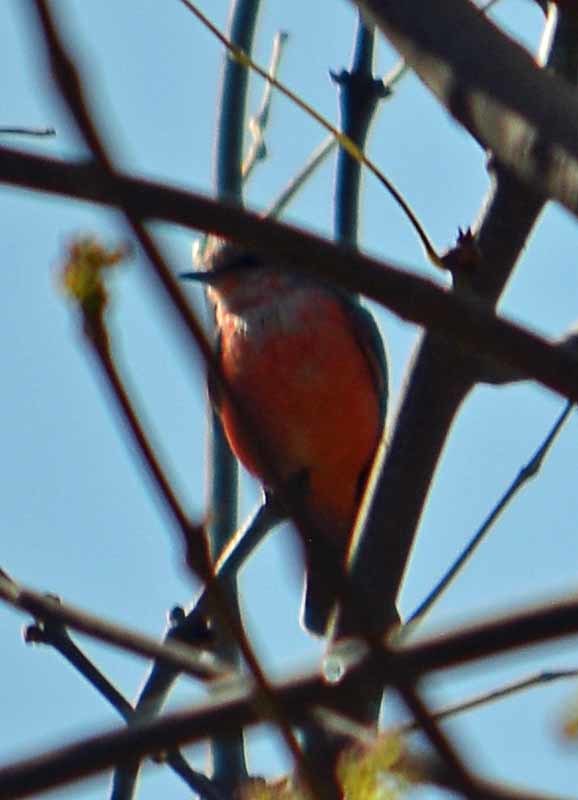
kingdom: Animalia
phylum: Chordata
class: Aves
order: Passeriformes
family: Tyrannidae
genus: Pyrocephalus
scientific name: Pyrocephalus rubinus
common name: Vermilion flycatcher
